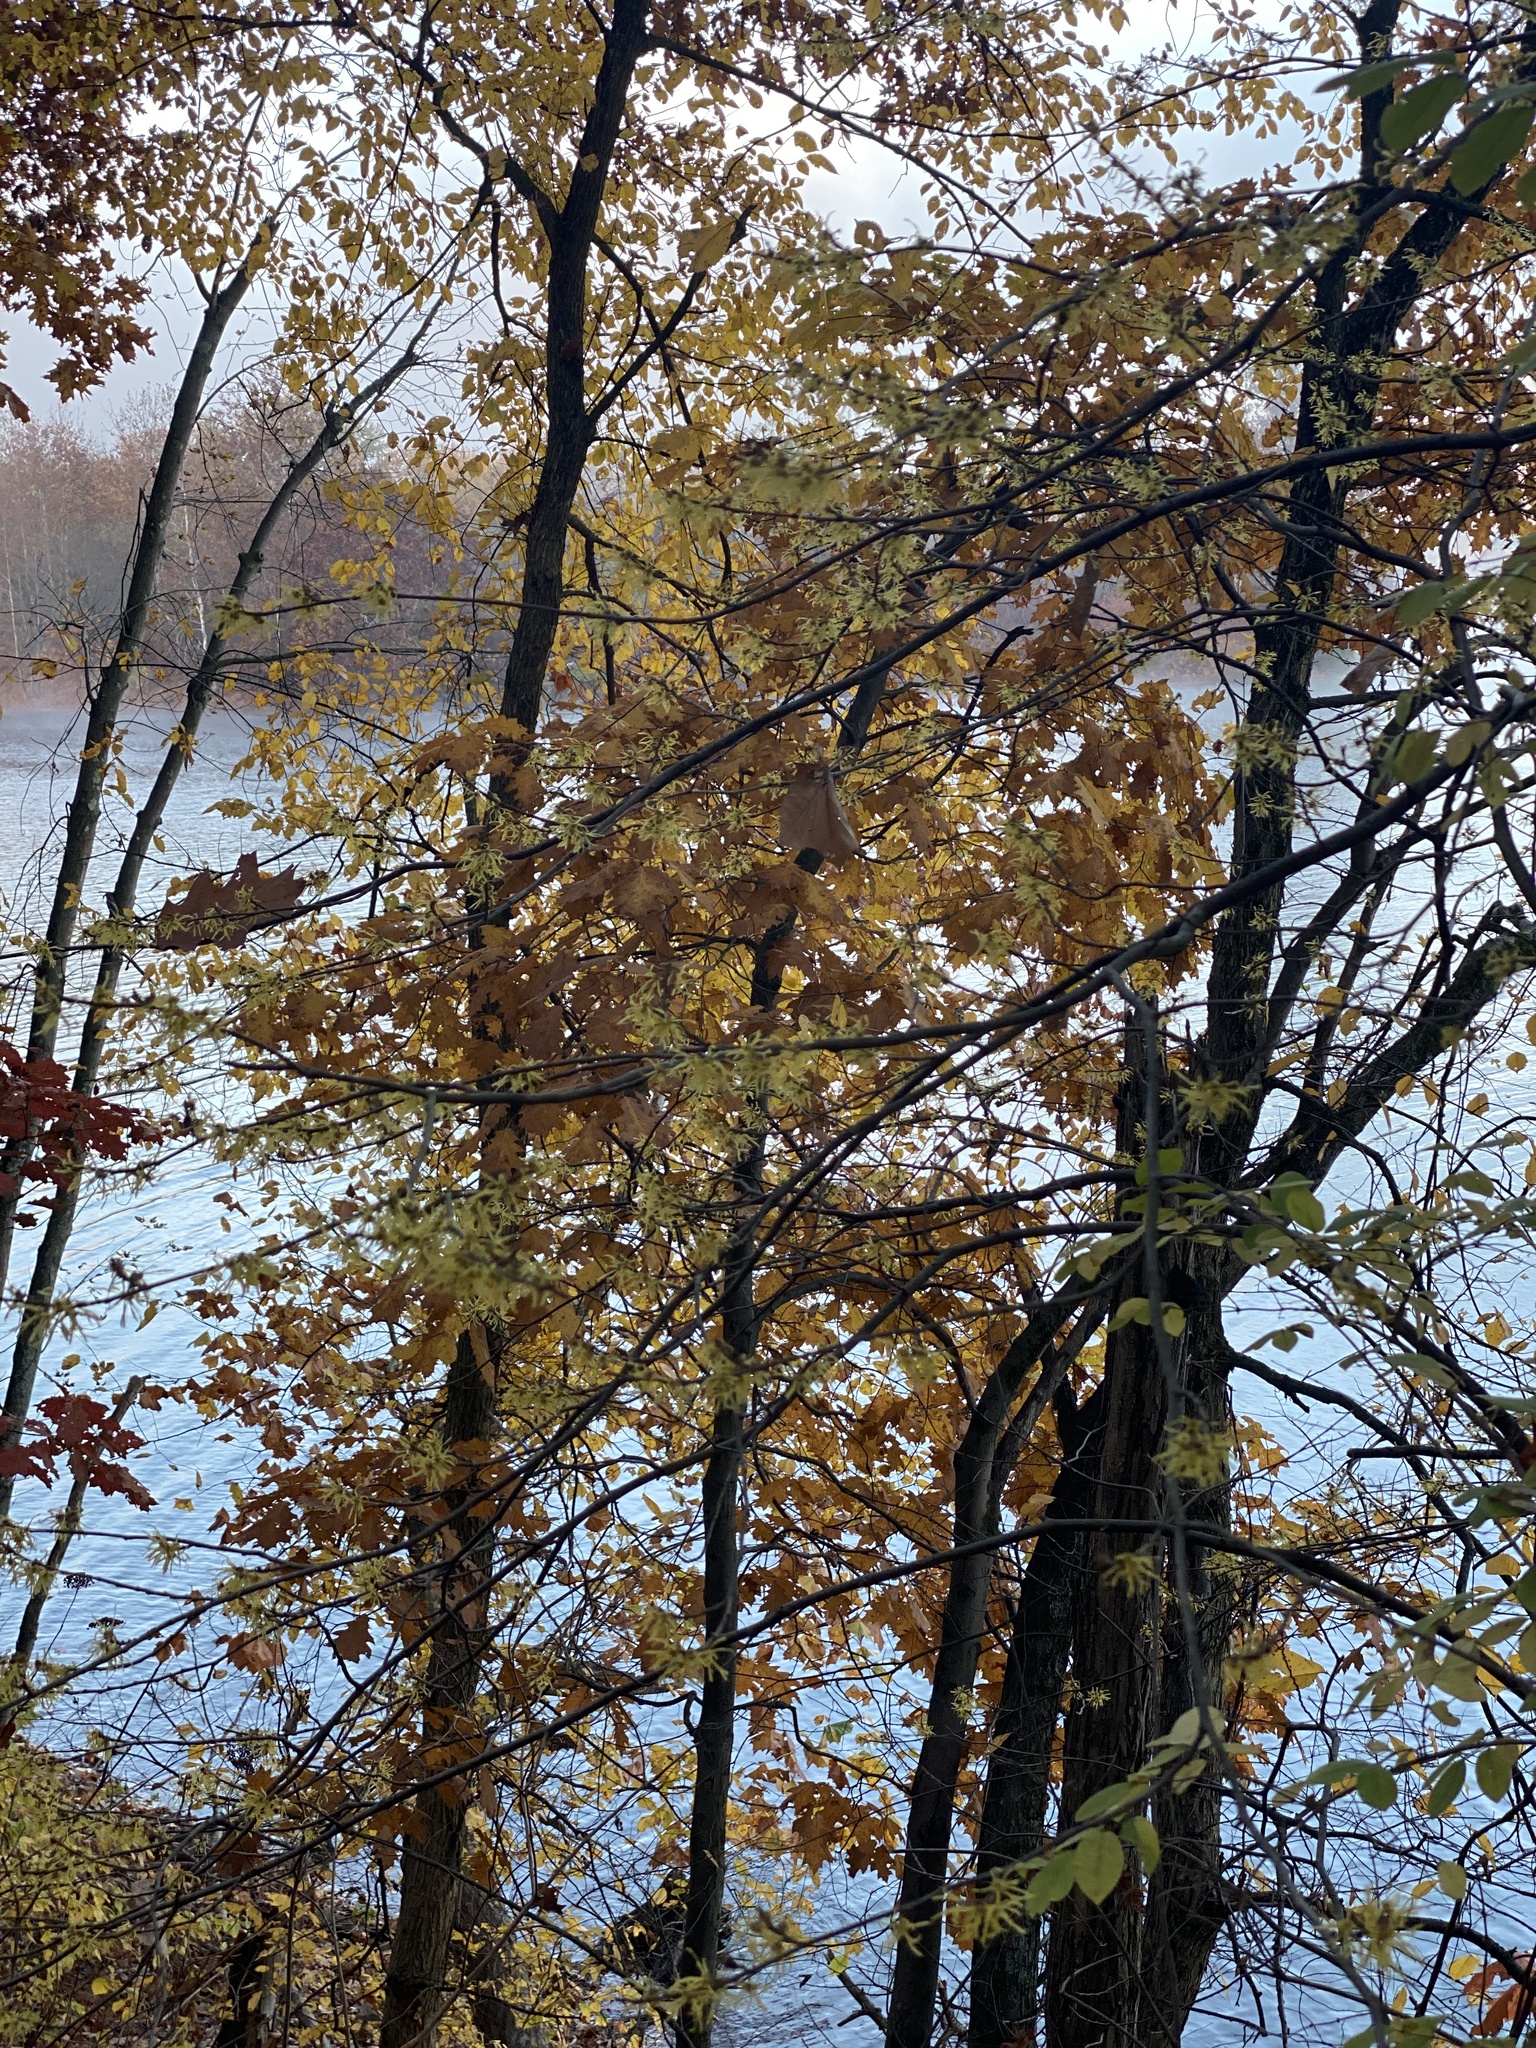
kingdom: Plantae
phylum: Tracheophyta
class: Magnoliopsida
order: Saxifragales
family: Hamamelidaceae
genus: Hamamelis
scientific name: Hamamelis virginiana
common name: Witch-hazel
